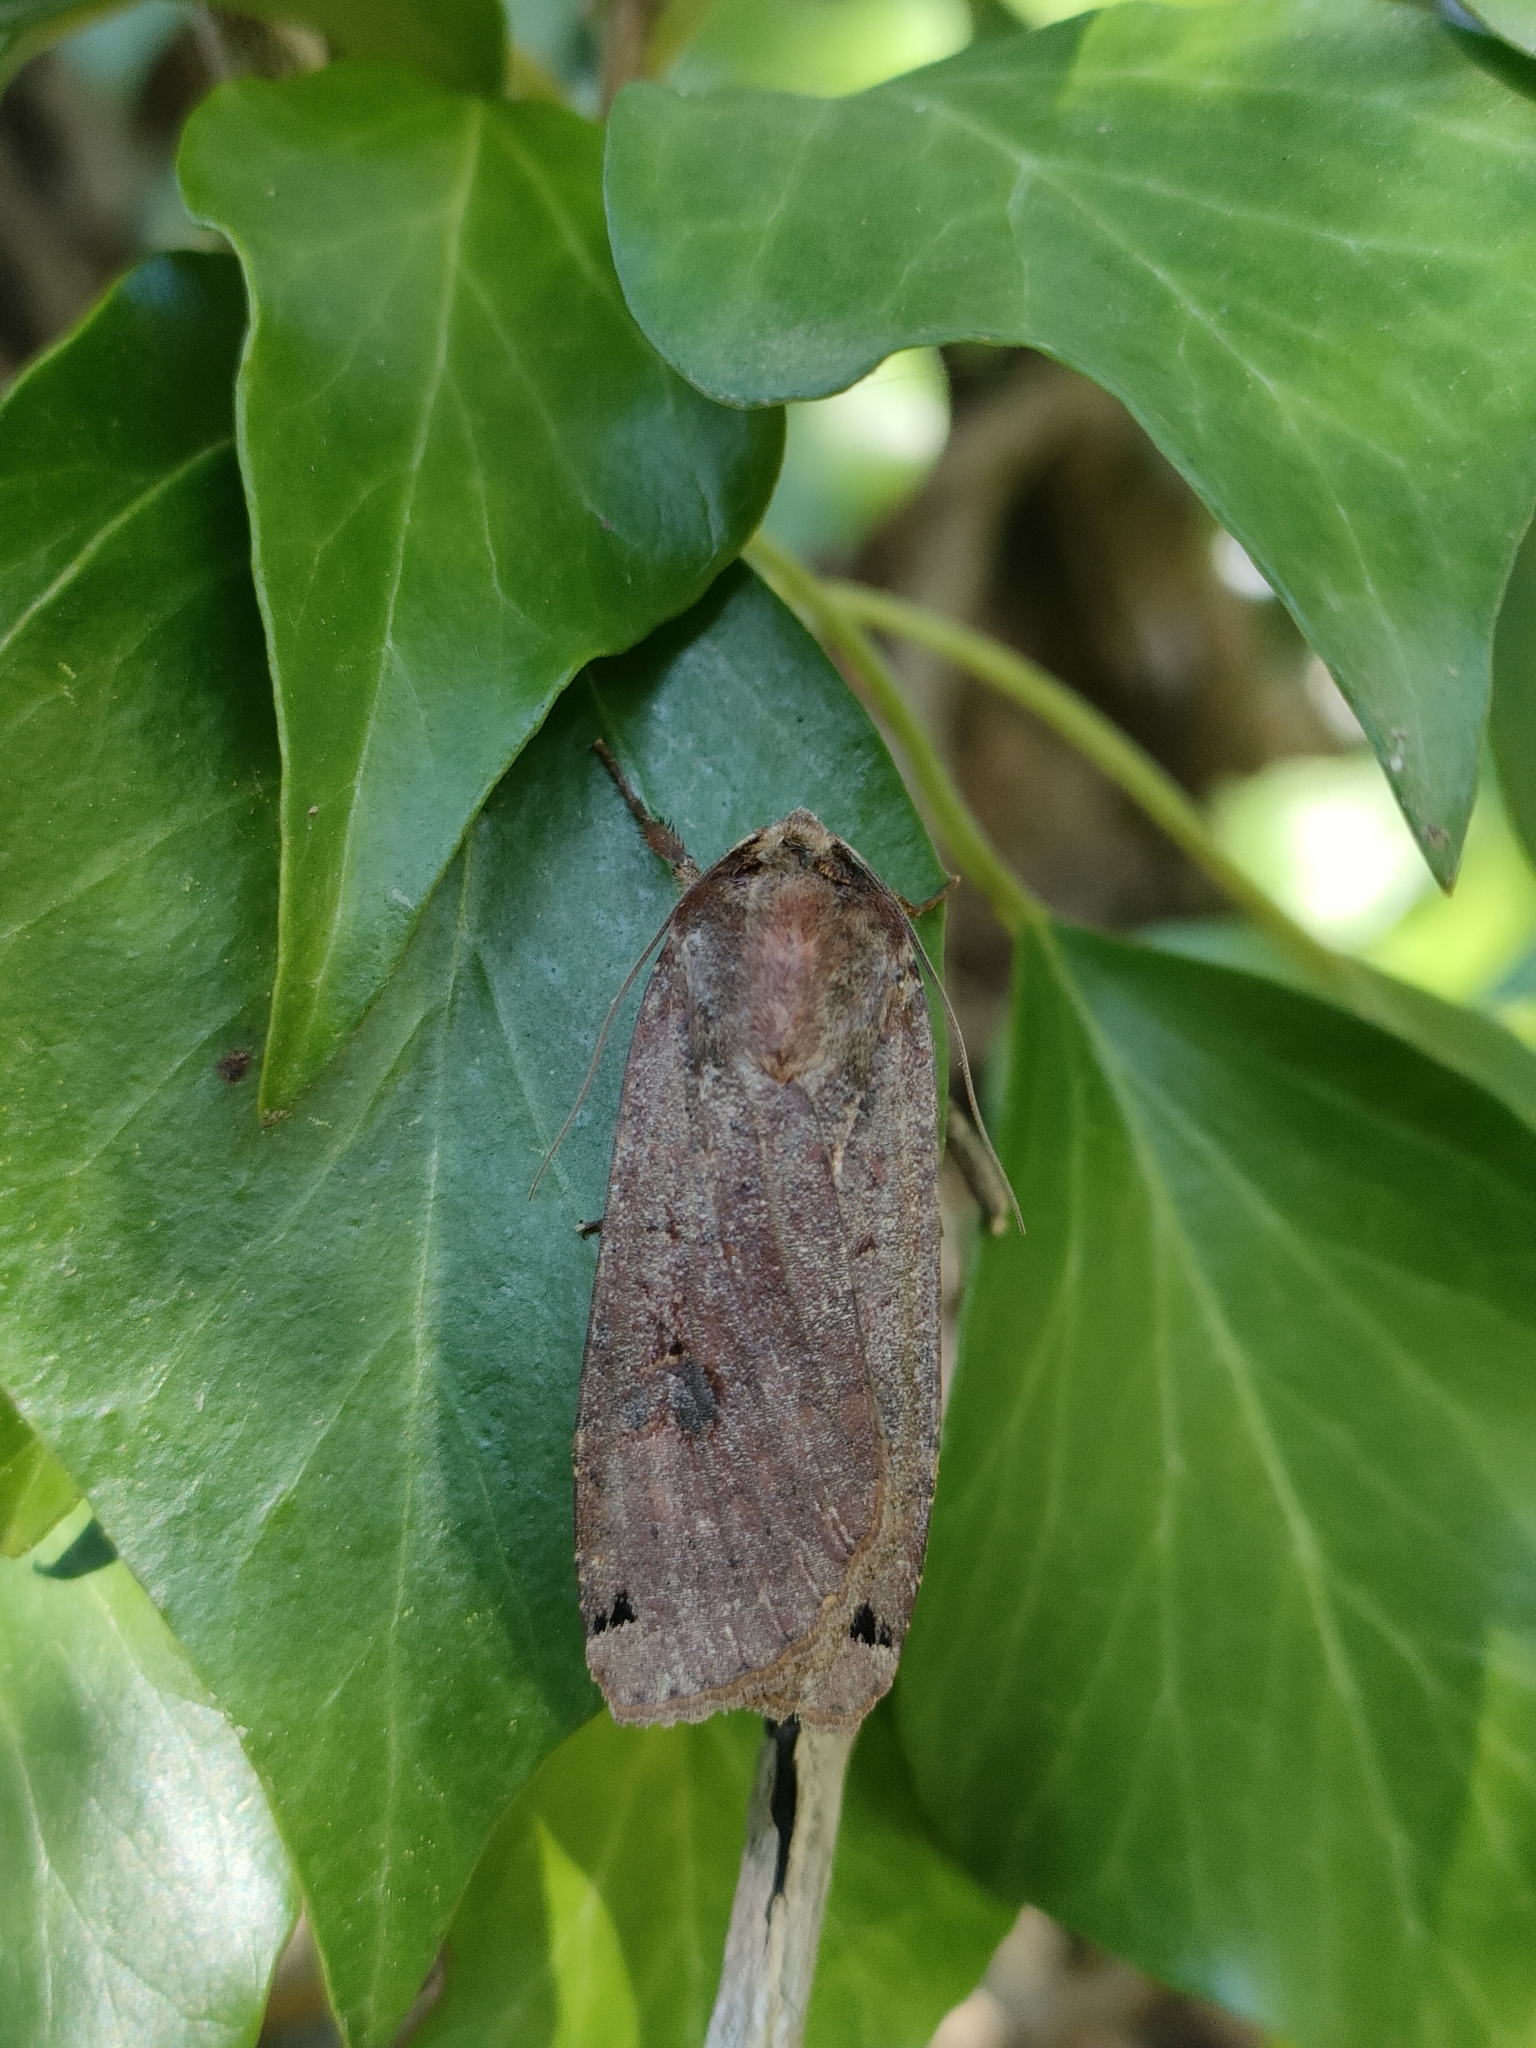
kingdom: Animalia
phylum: Arthropoda
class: Insecta
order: Lepidoptera
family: Noctuidae
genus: Noctua
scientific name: Noctua pronuba
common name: Large yellow underwing
